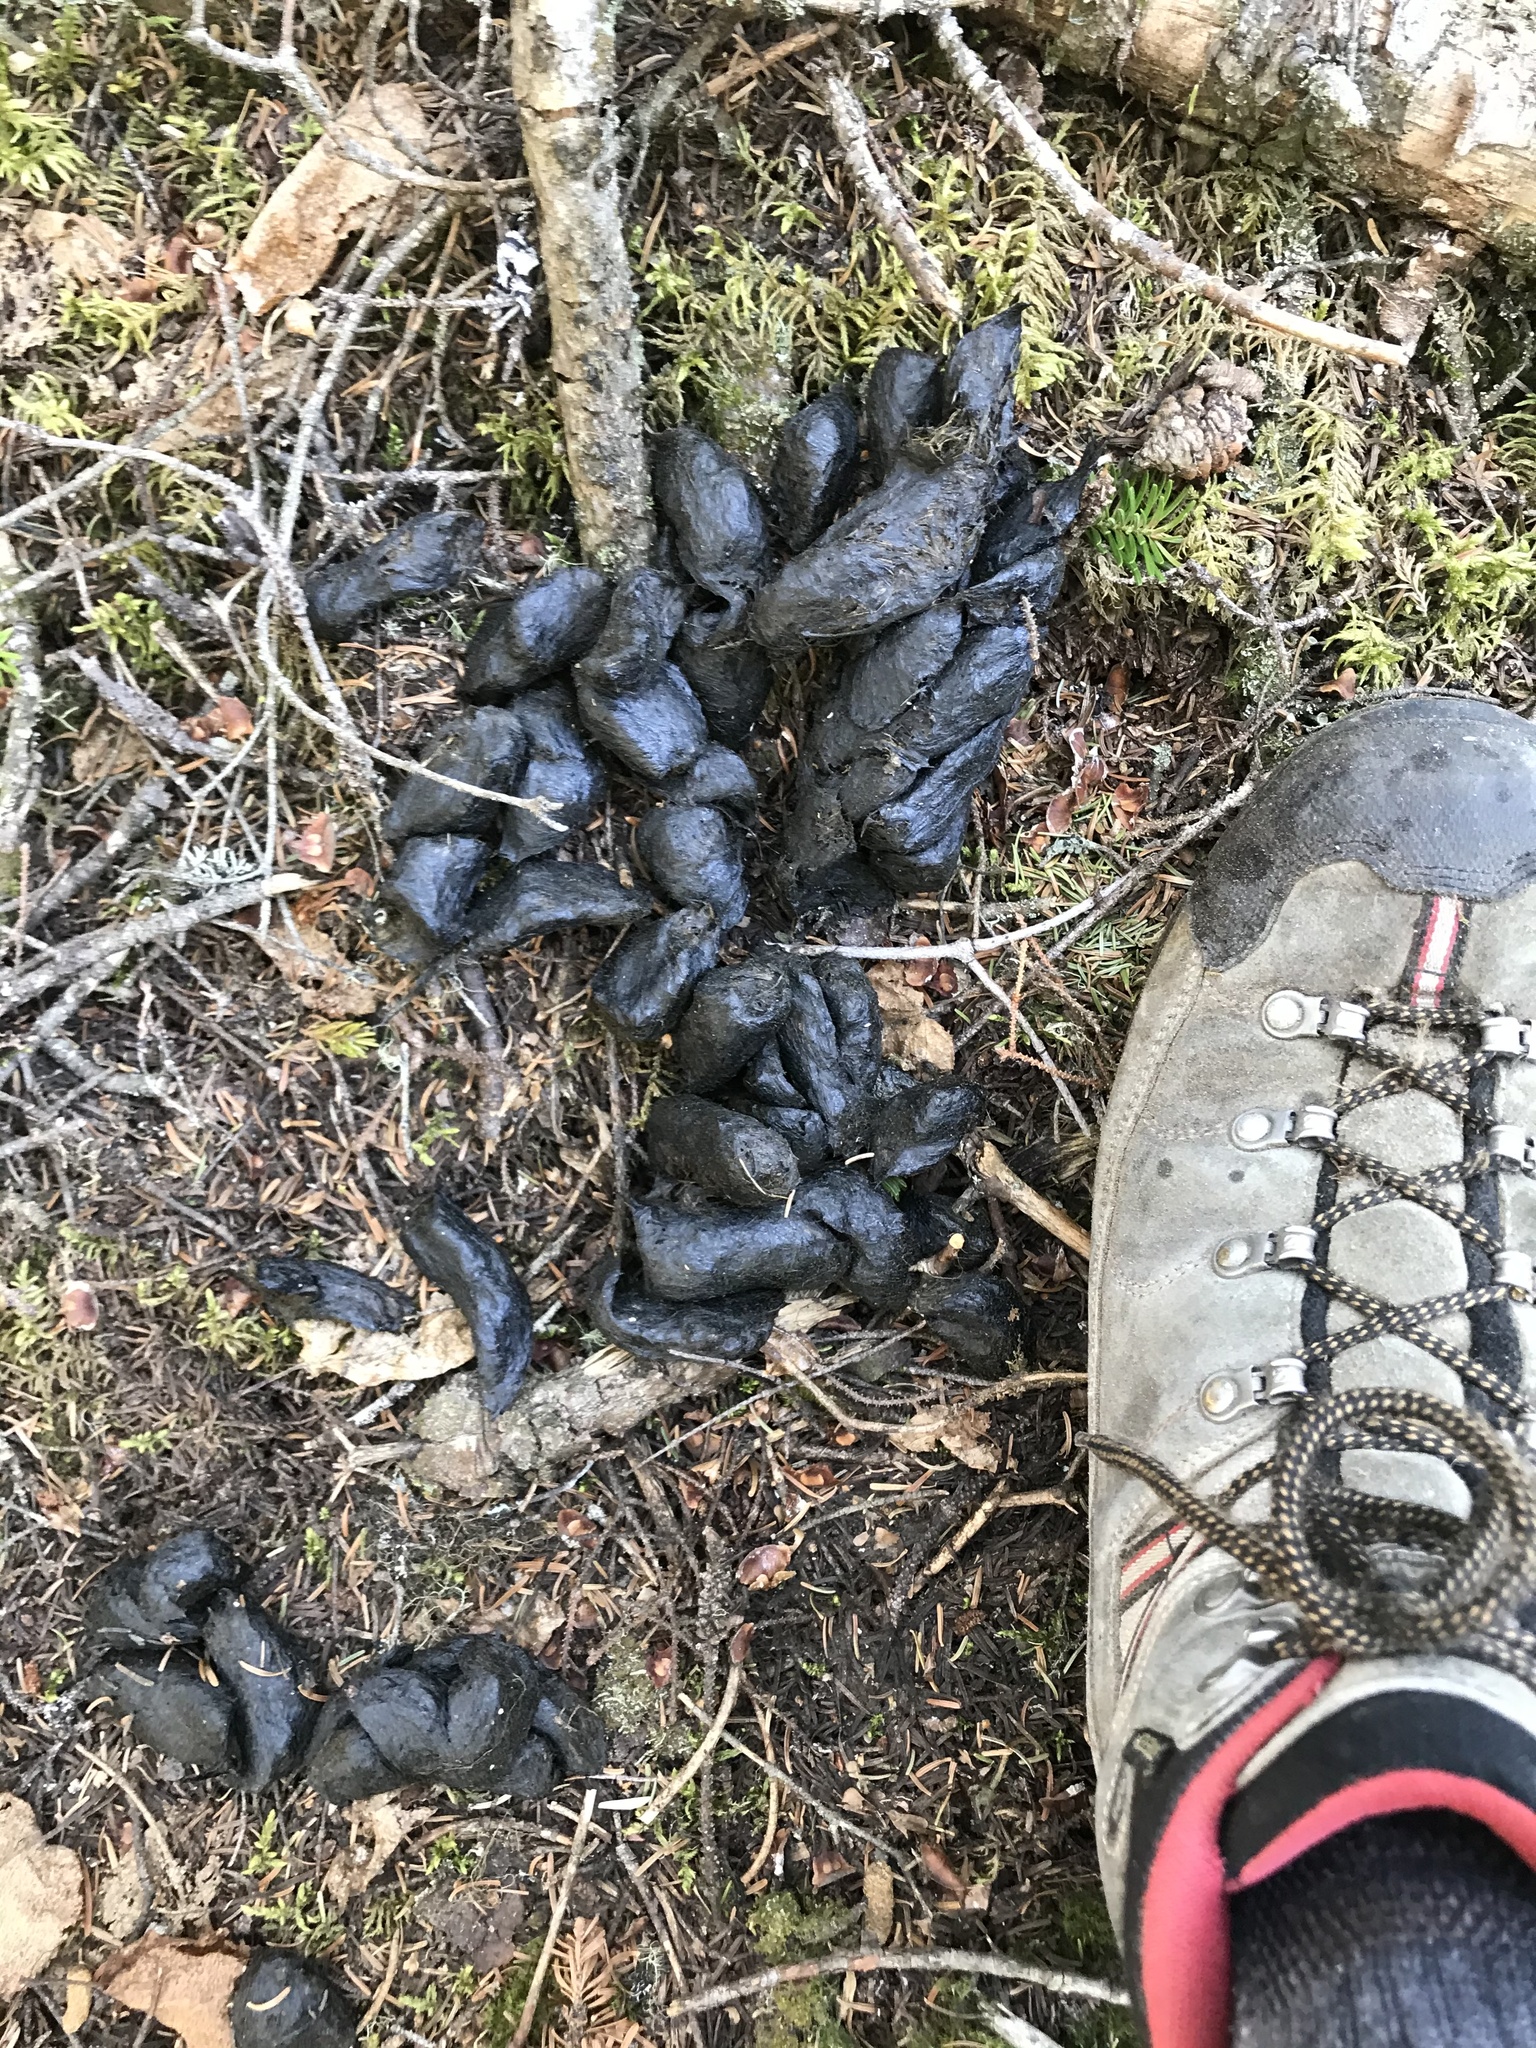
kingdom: Animalia
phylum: Chordata
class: Mammalia
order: Carnivora
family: Ursidae
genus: Ursus
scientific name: Ursus americanus
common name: American black bear
